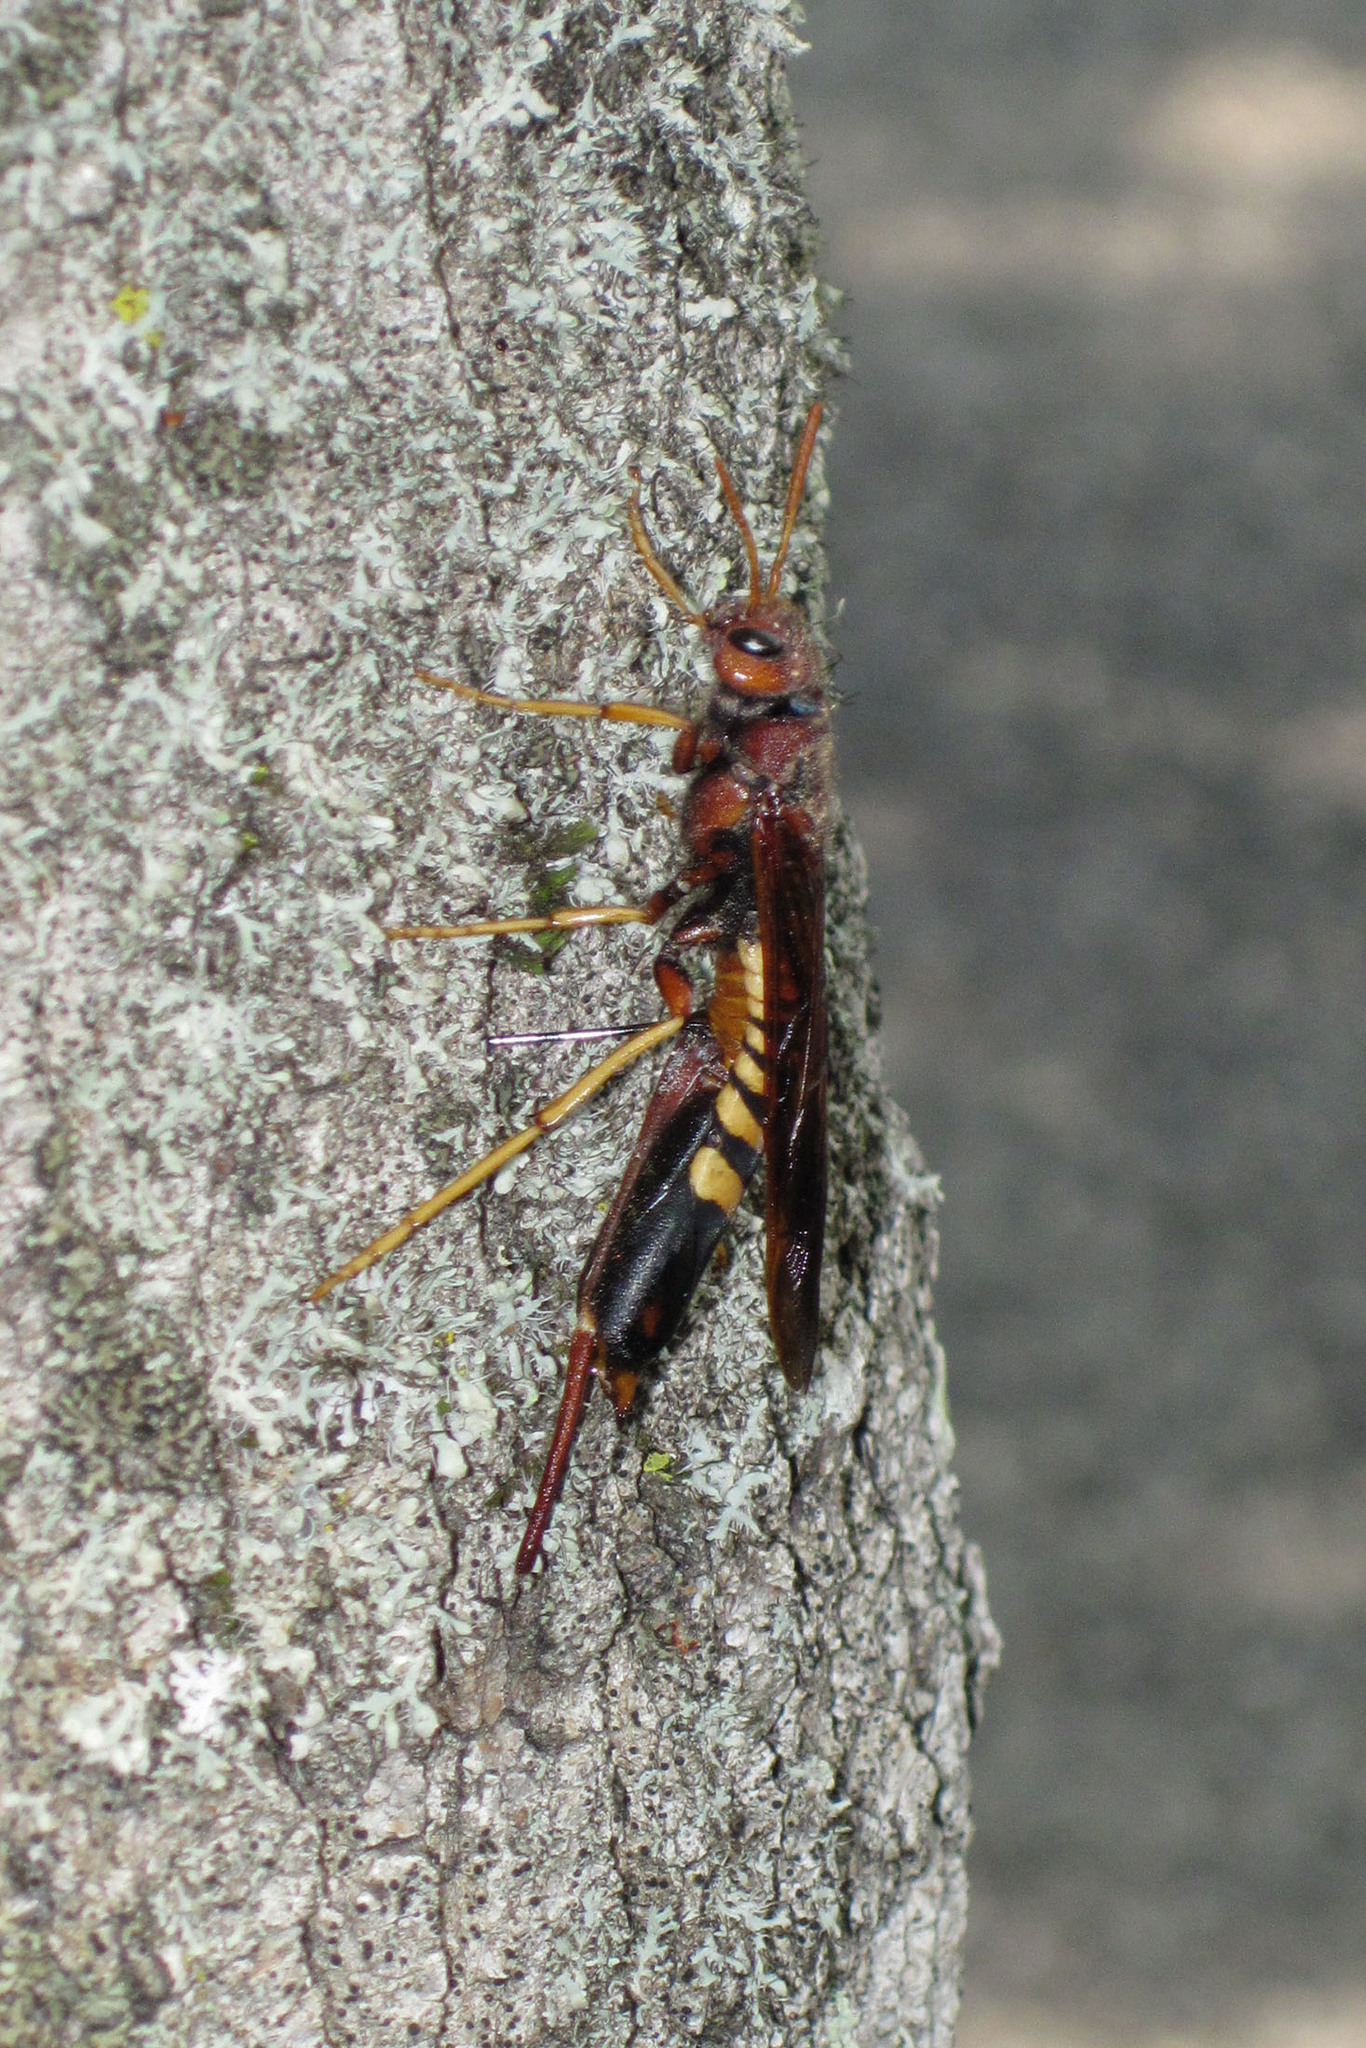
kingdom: Animalia
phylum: Arthropoda
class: Insecta
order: Hymenoptera
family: Siricidae
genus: Tremex
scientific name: Tremex columba
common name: Wasp
